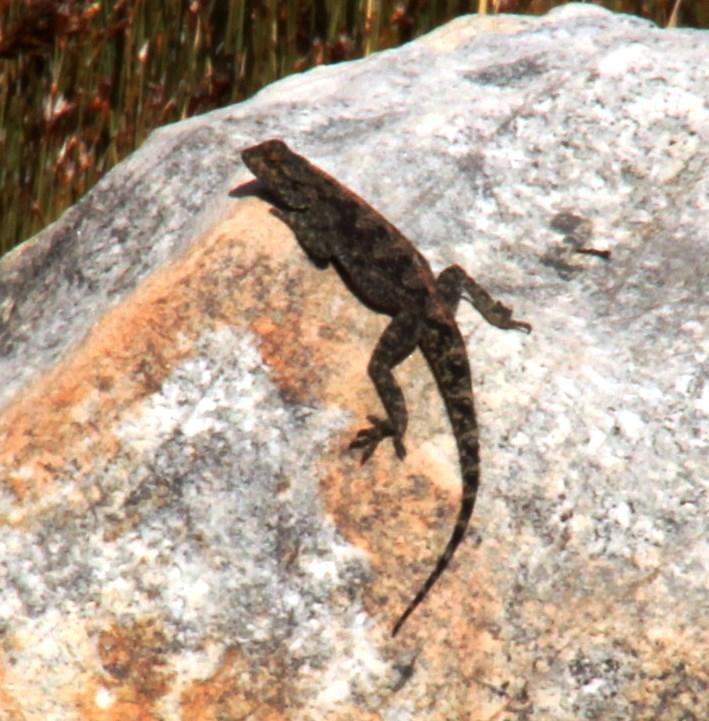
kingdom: Animalia
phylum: Chordata
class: Squamata
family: Agamidae
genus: Agama
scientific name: Agama atra
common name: Southern african rock agama
